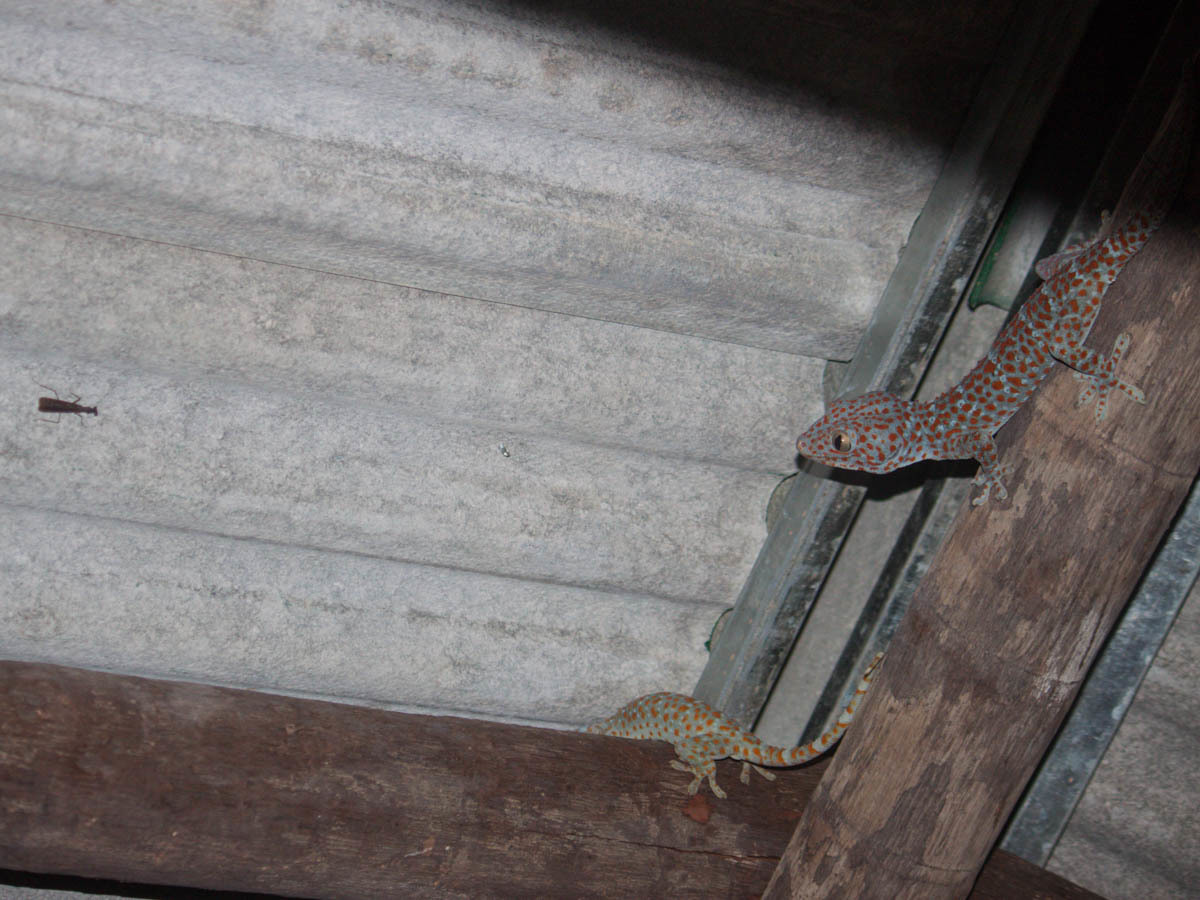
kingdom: Animalia
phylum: Chordata
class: Squamata
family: Gekkonidae
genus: Gekko
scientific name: Gekko gecko
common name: Tokay gecko
